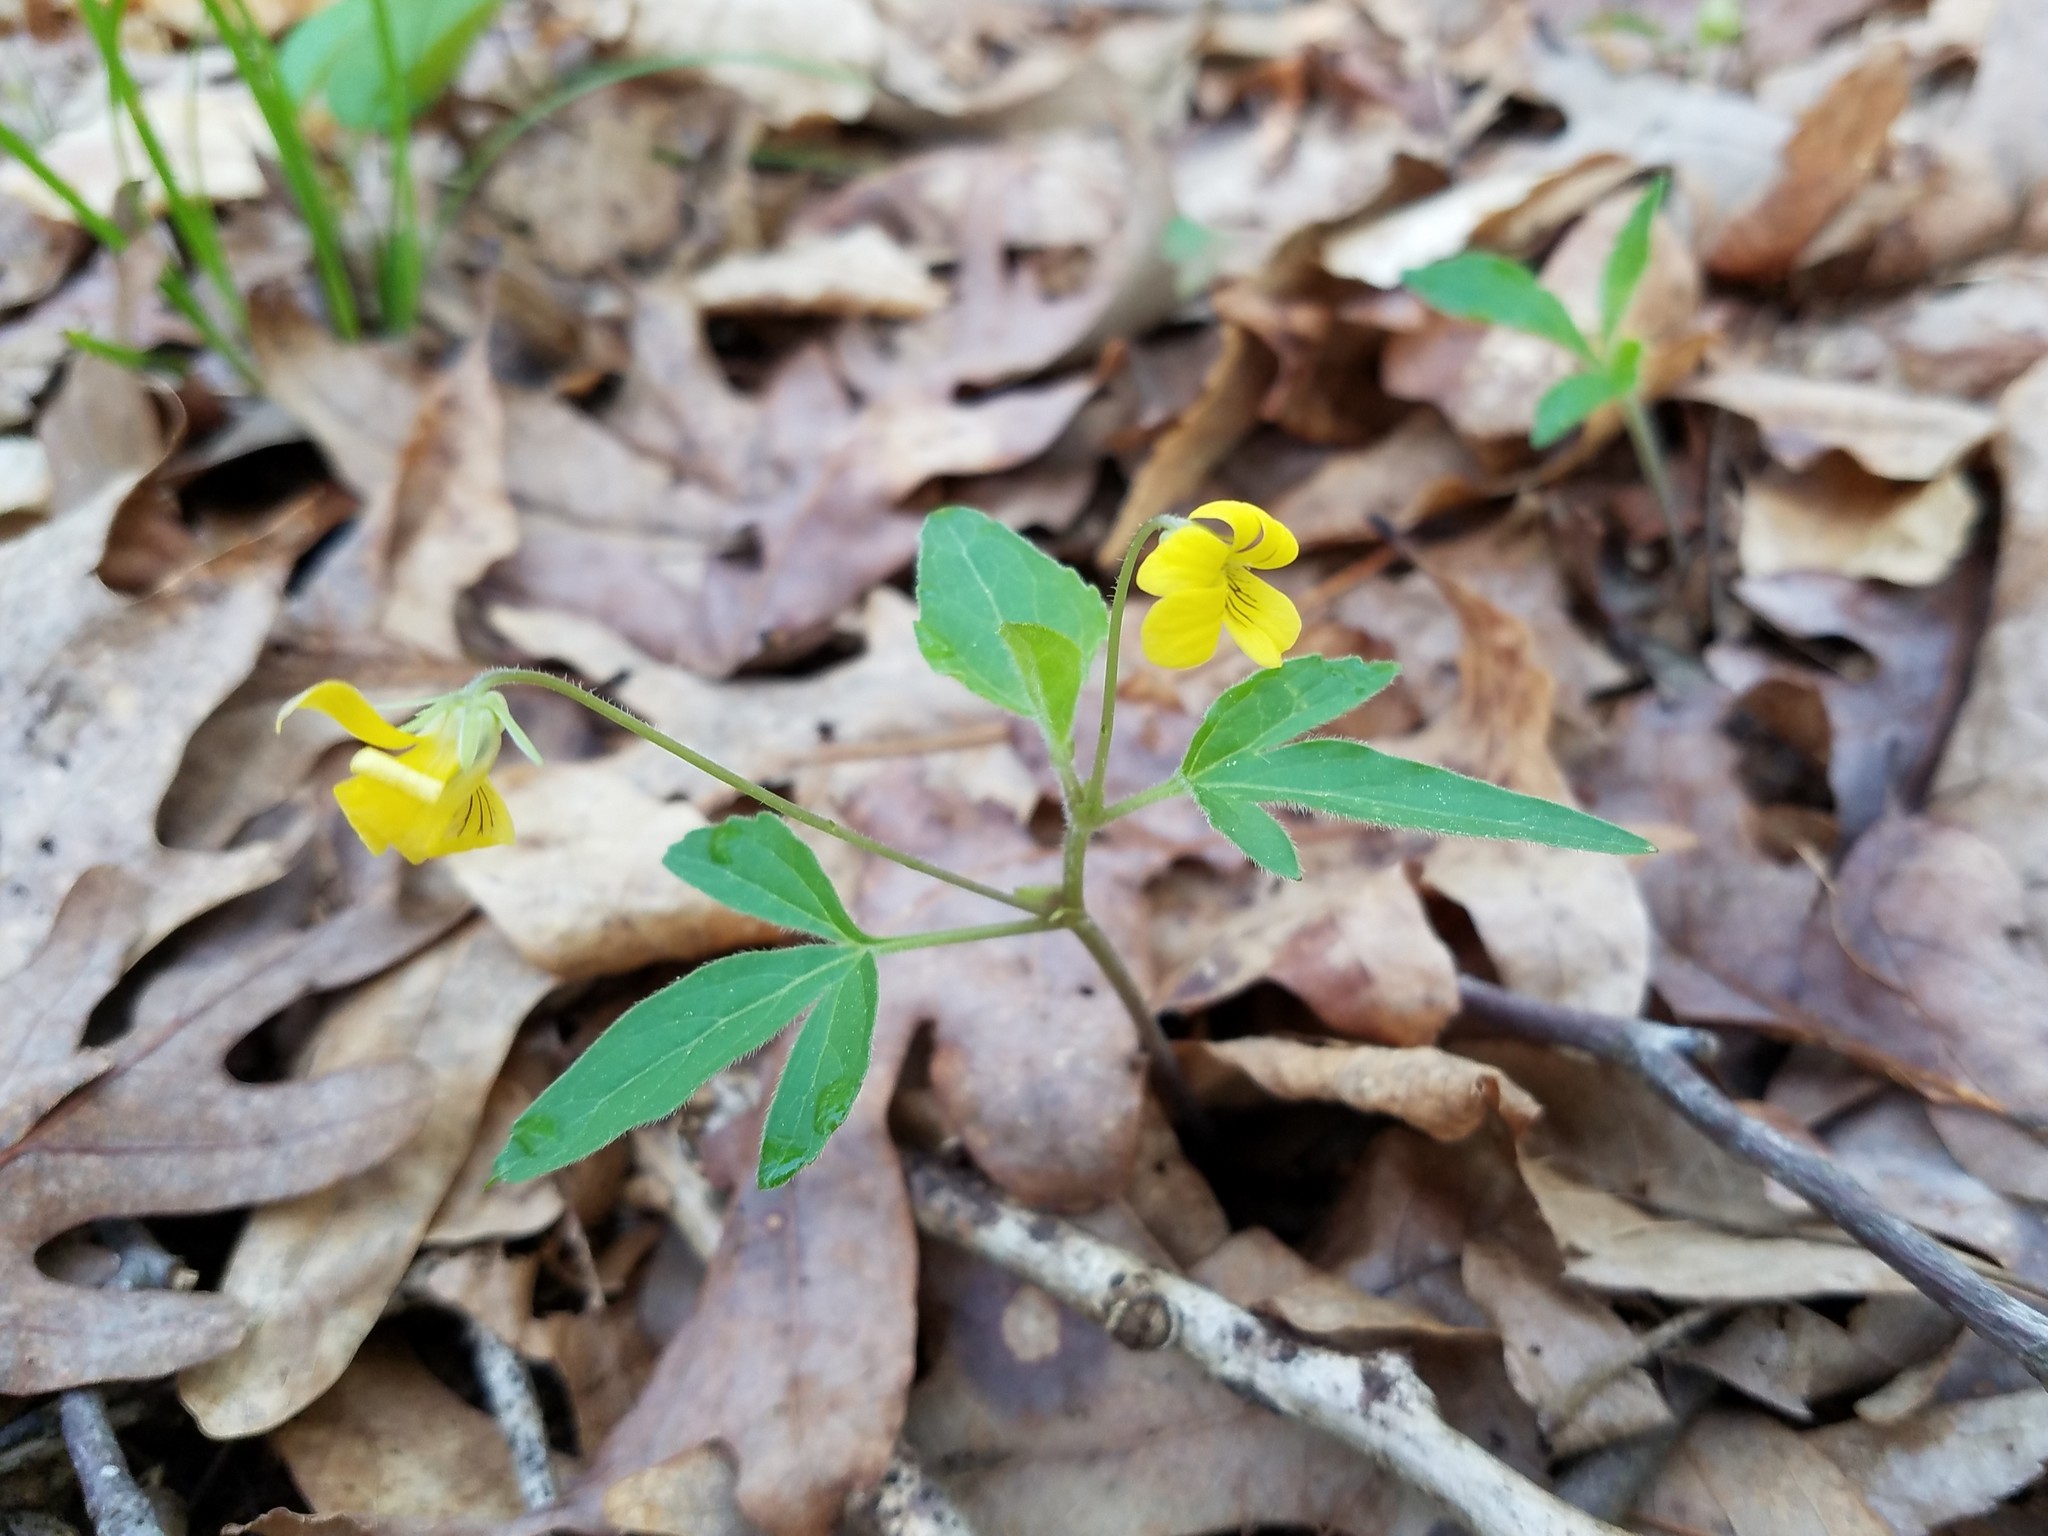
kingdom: Plantae
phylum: Tracheophyta
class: Magnoliopsida
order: Malpighiales
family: Violaceae
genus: Viola
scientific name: Viola tripartita
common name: Three-part violet
